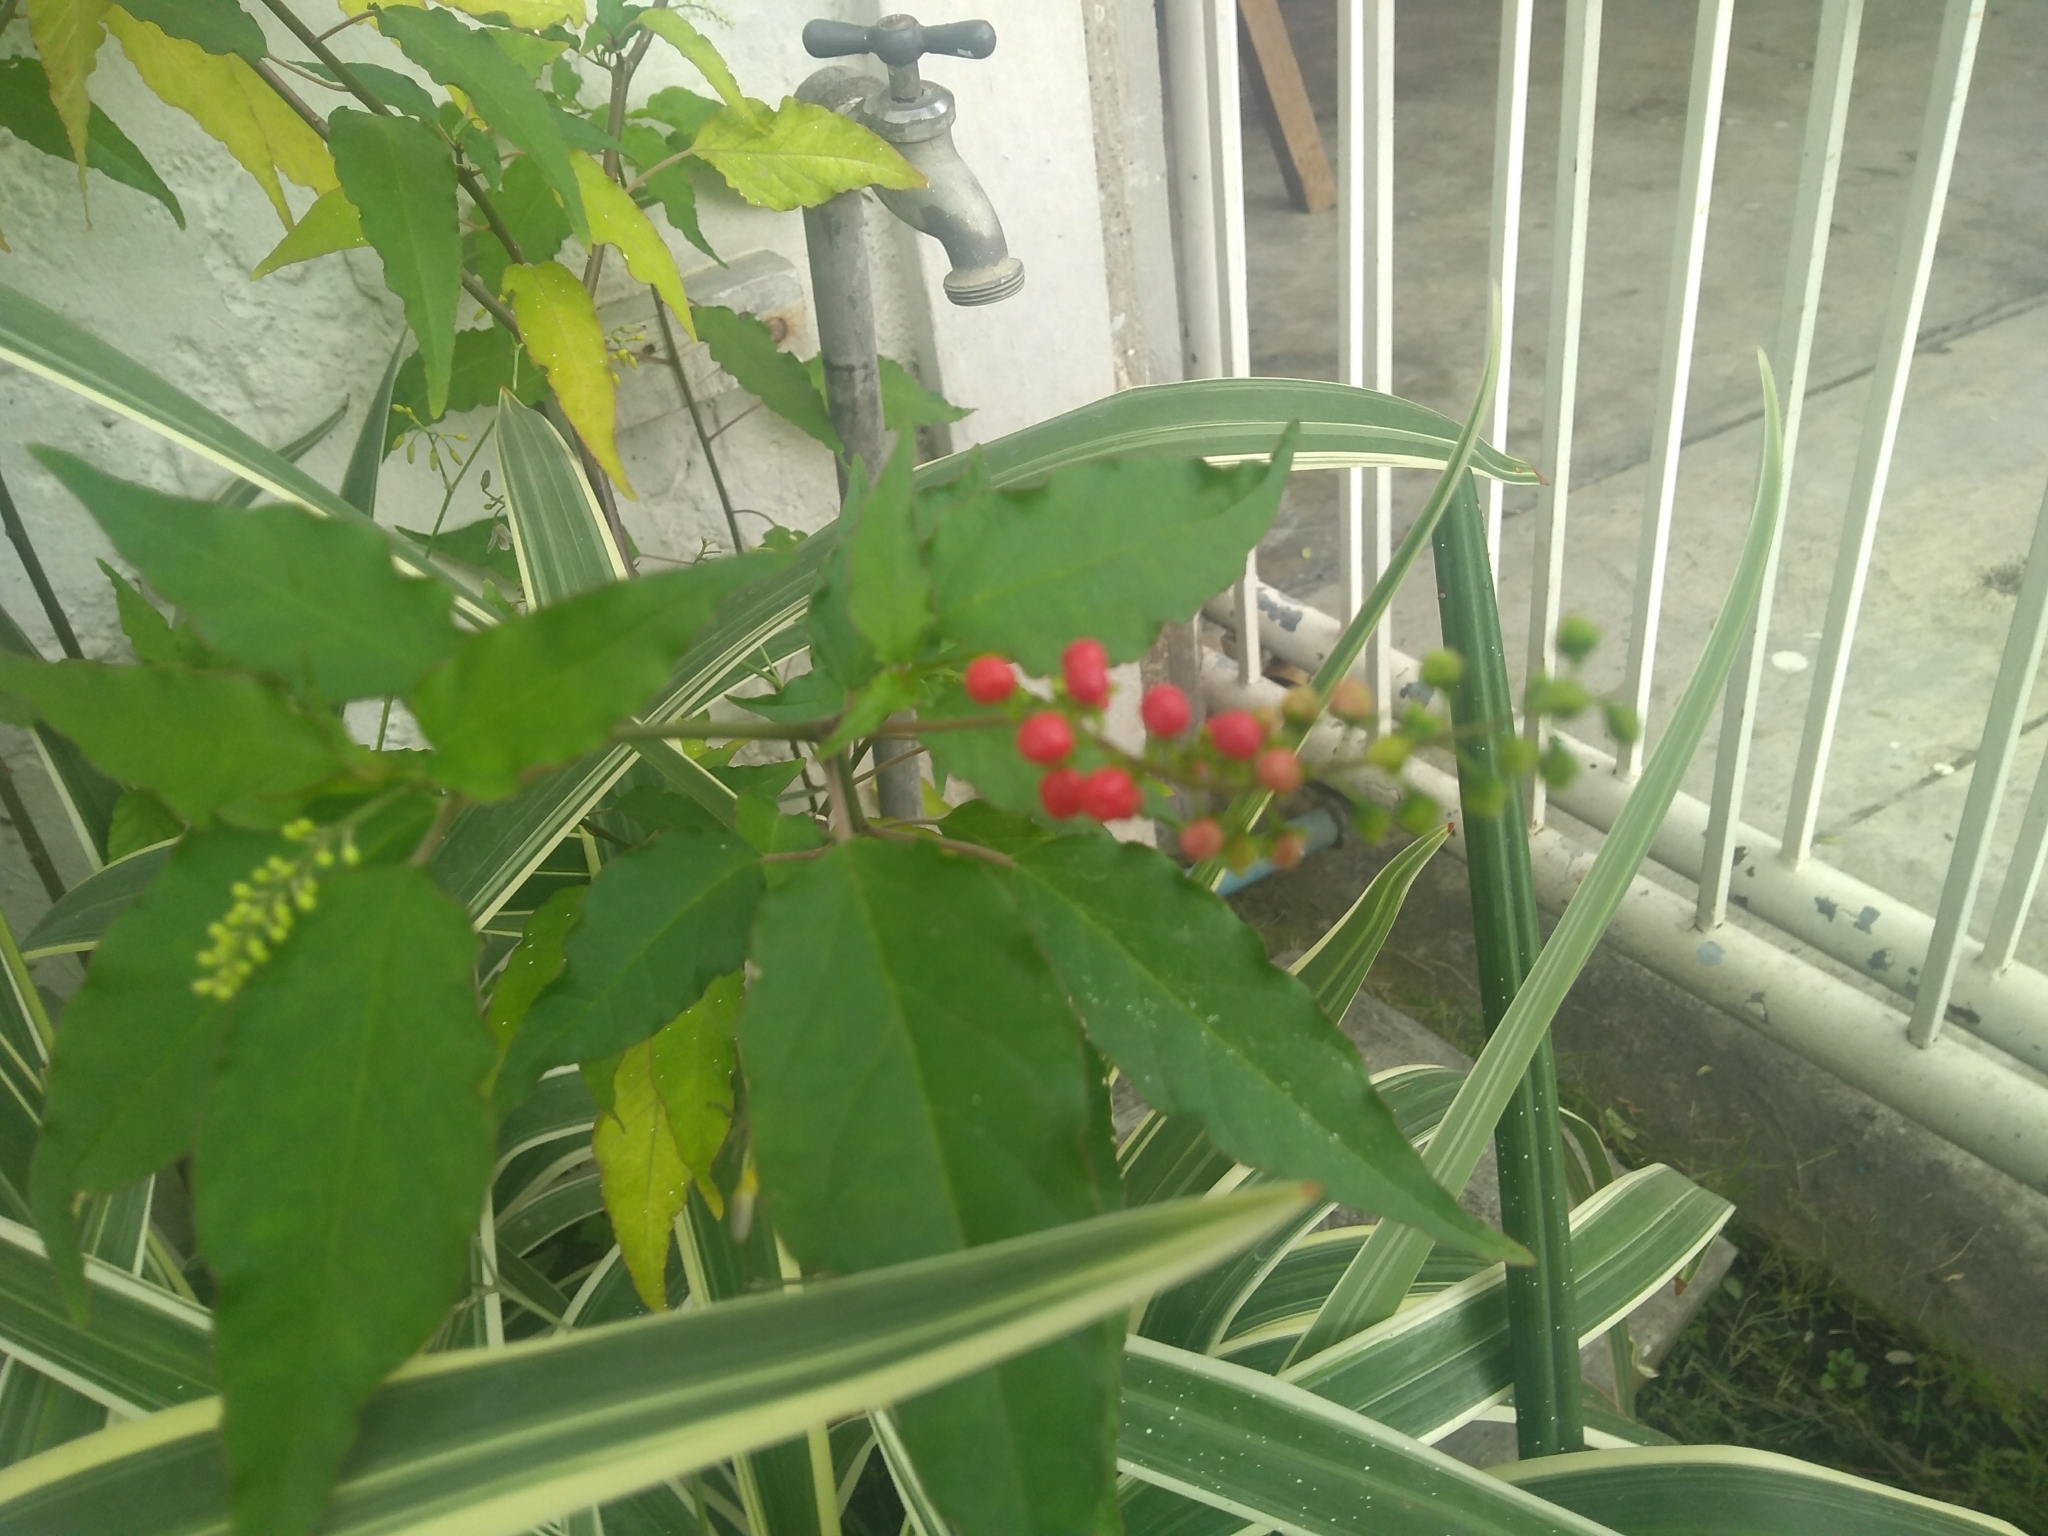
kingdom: Plantae
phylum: Tracheophyta
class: Magnoliopsida
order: Caryophyllales
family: Phytolaccaceae
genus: Rivina
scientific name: Rivina humilis
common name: Rougeplant
